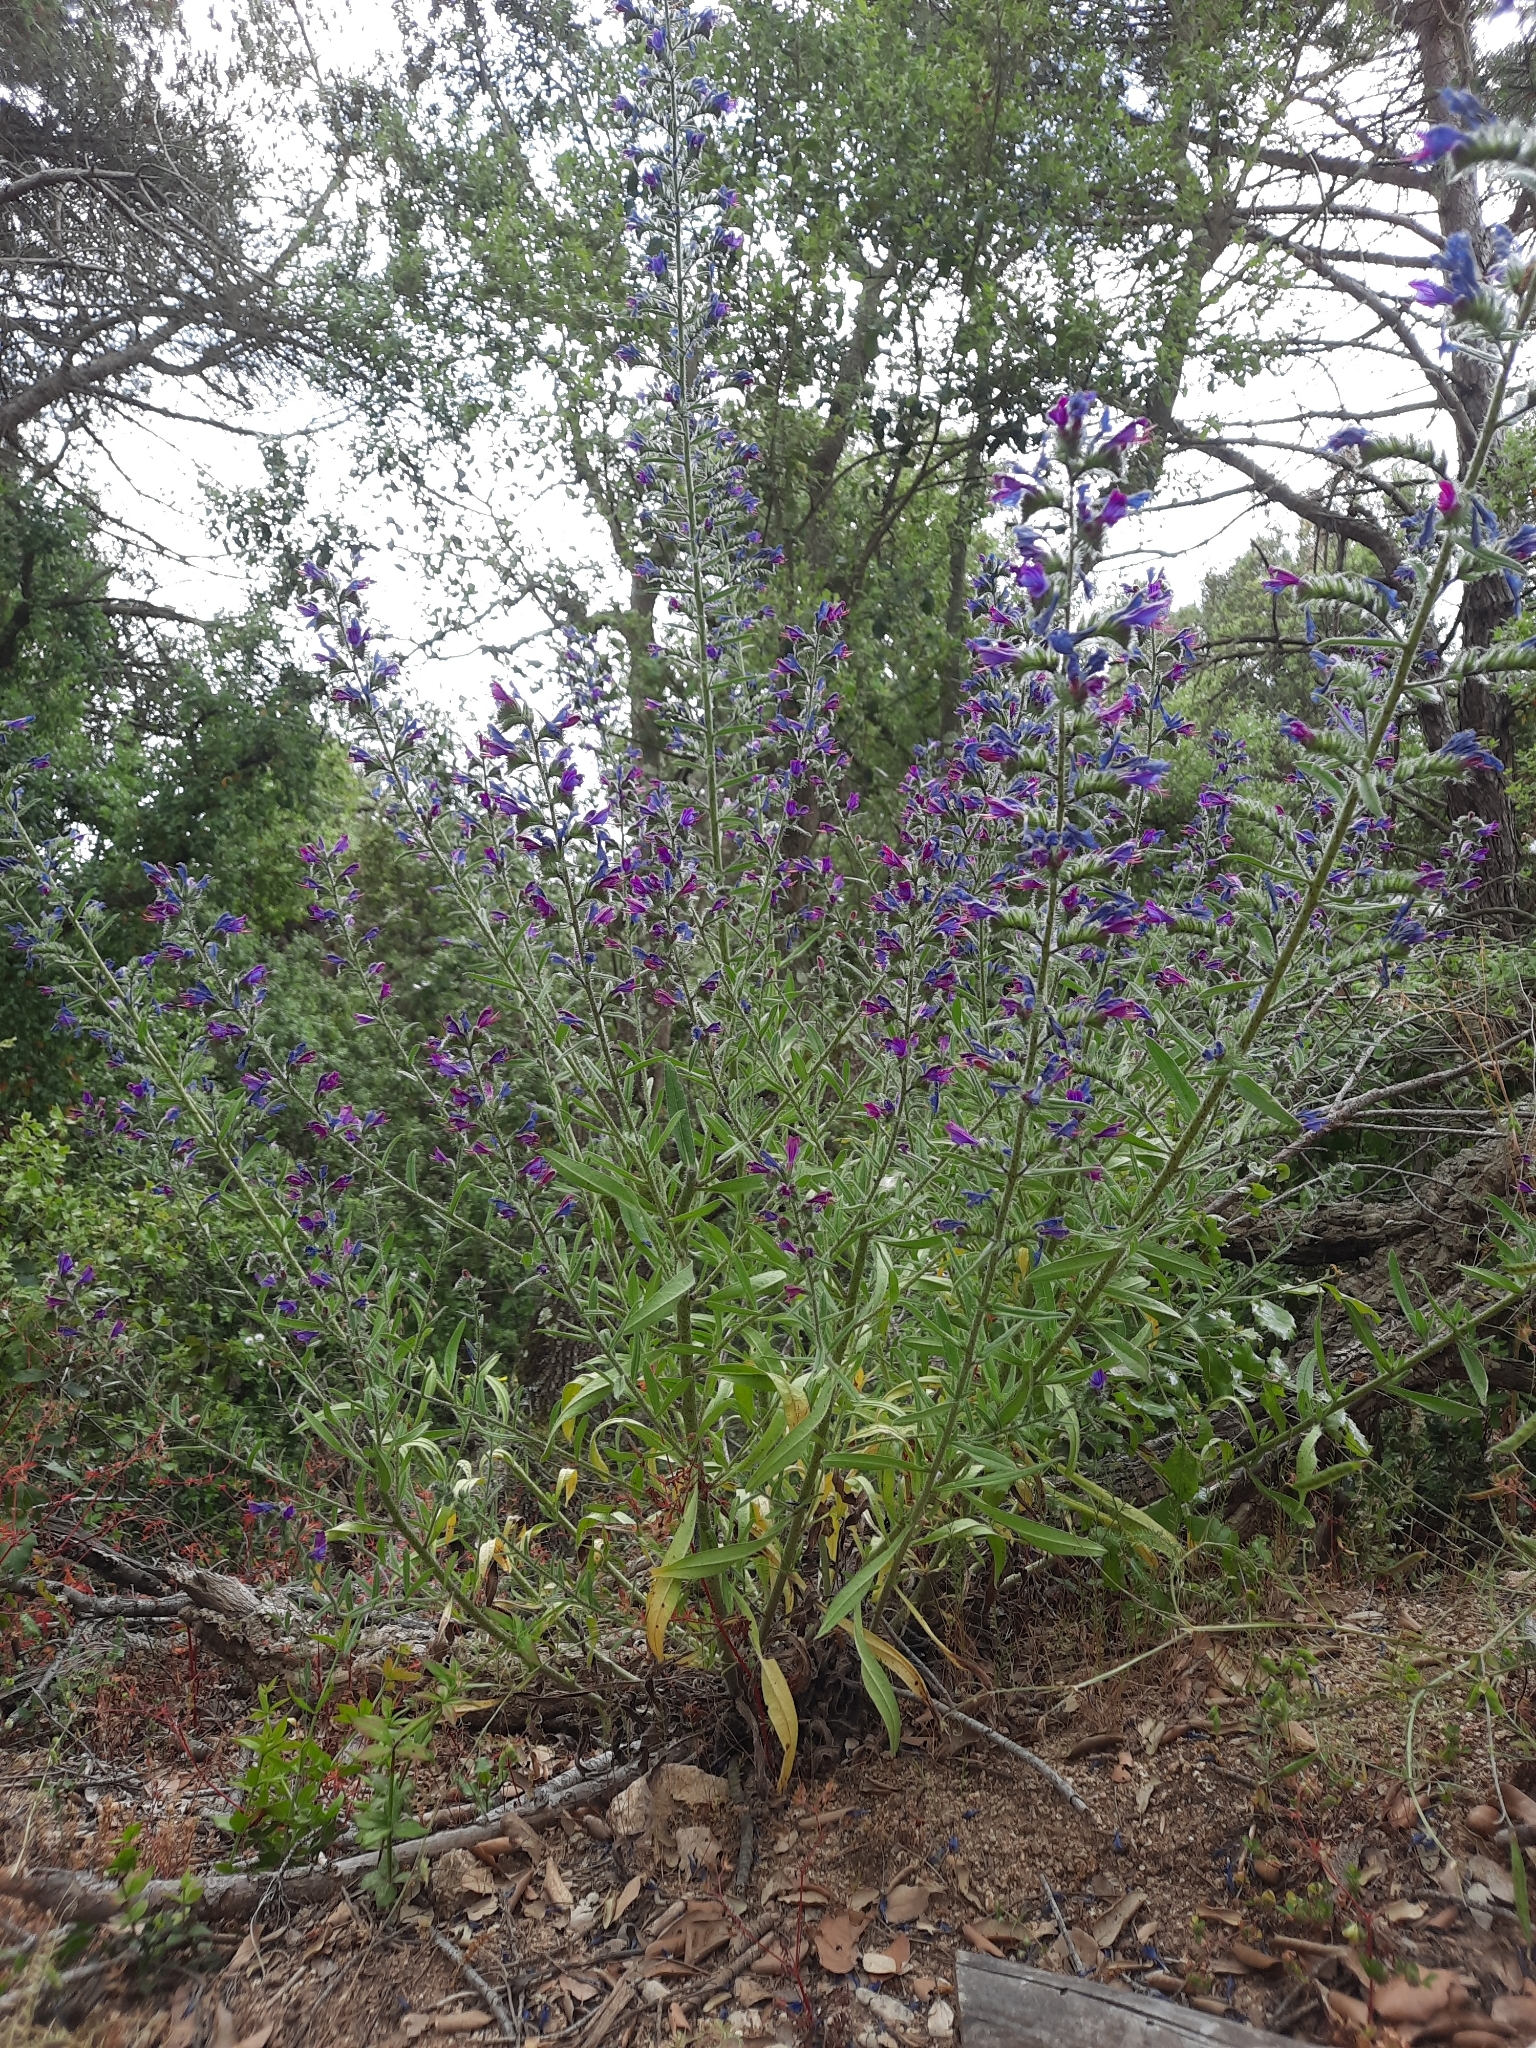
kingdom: Plantae
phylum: Tracheophyta
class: Magnoliopsida
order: Boraginales
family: Boraginaceae
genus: Echium
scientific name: Echium vulgare
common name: Common viper's bugloss
